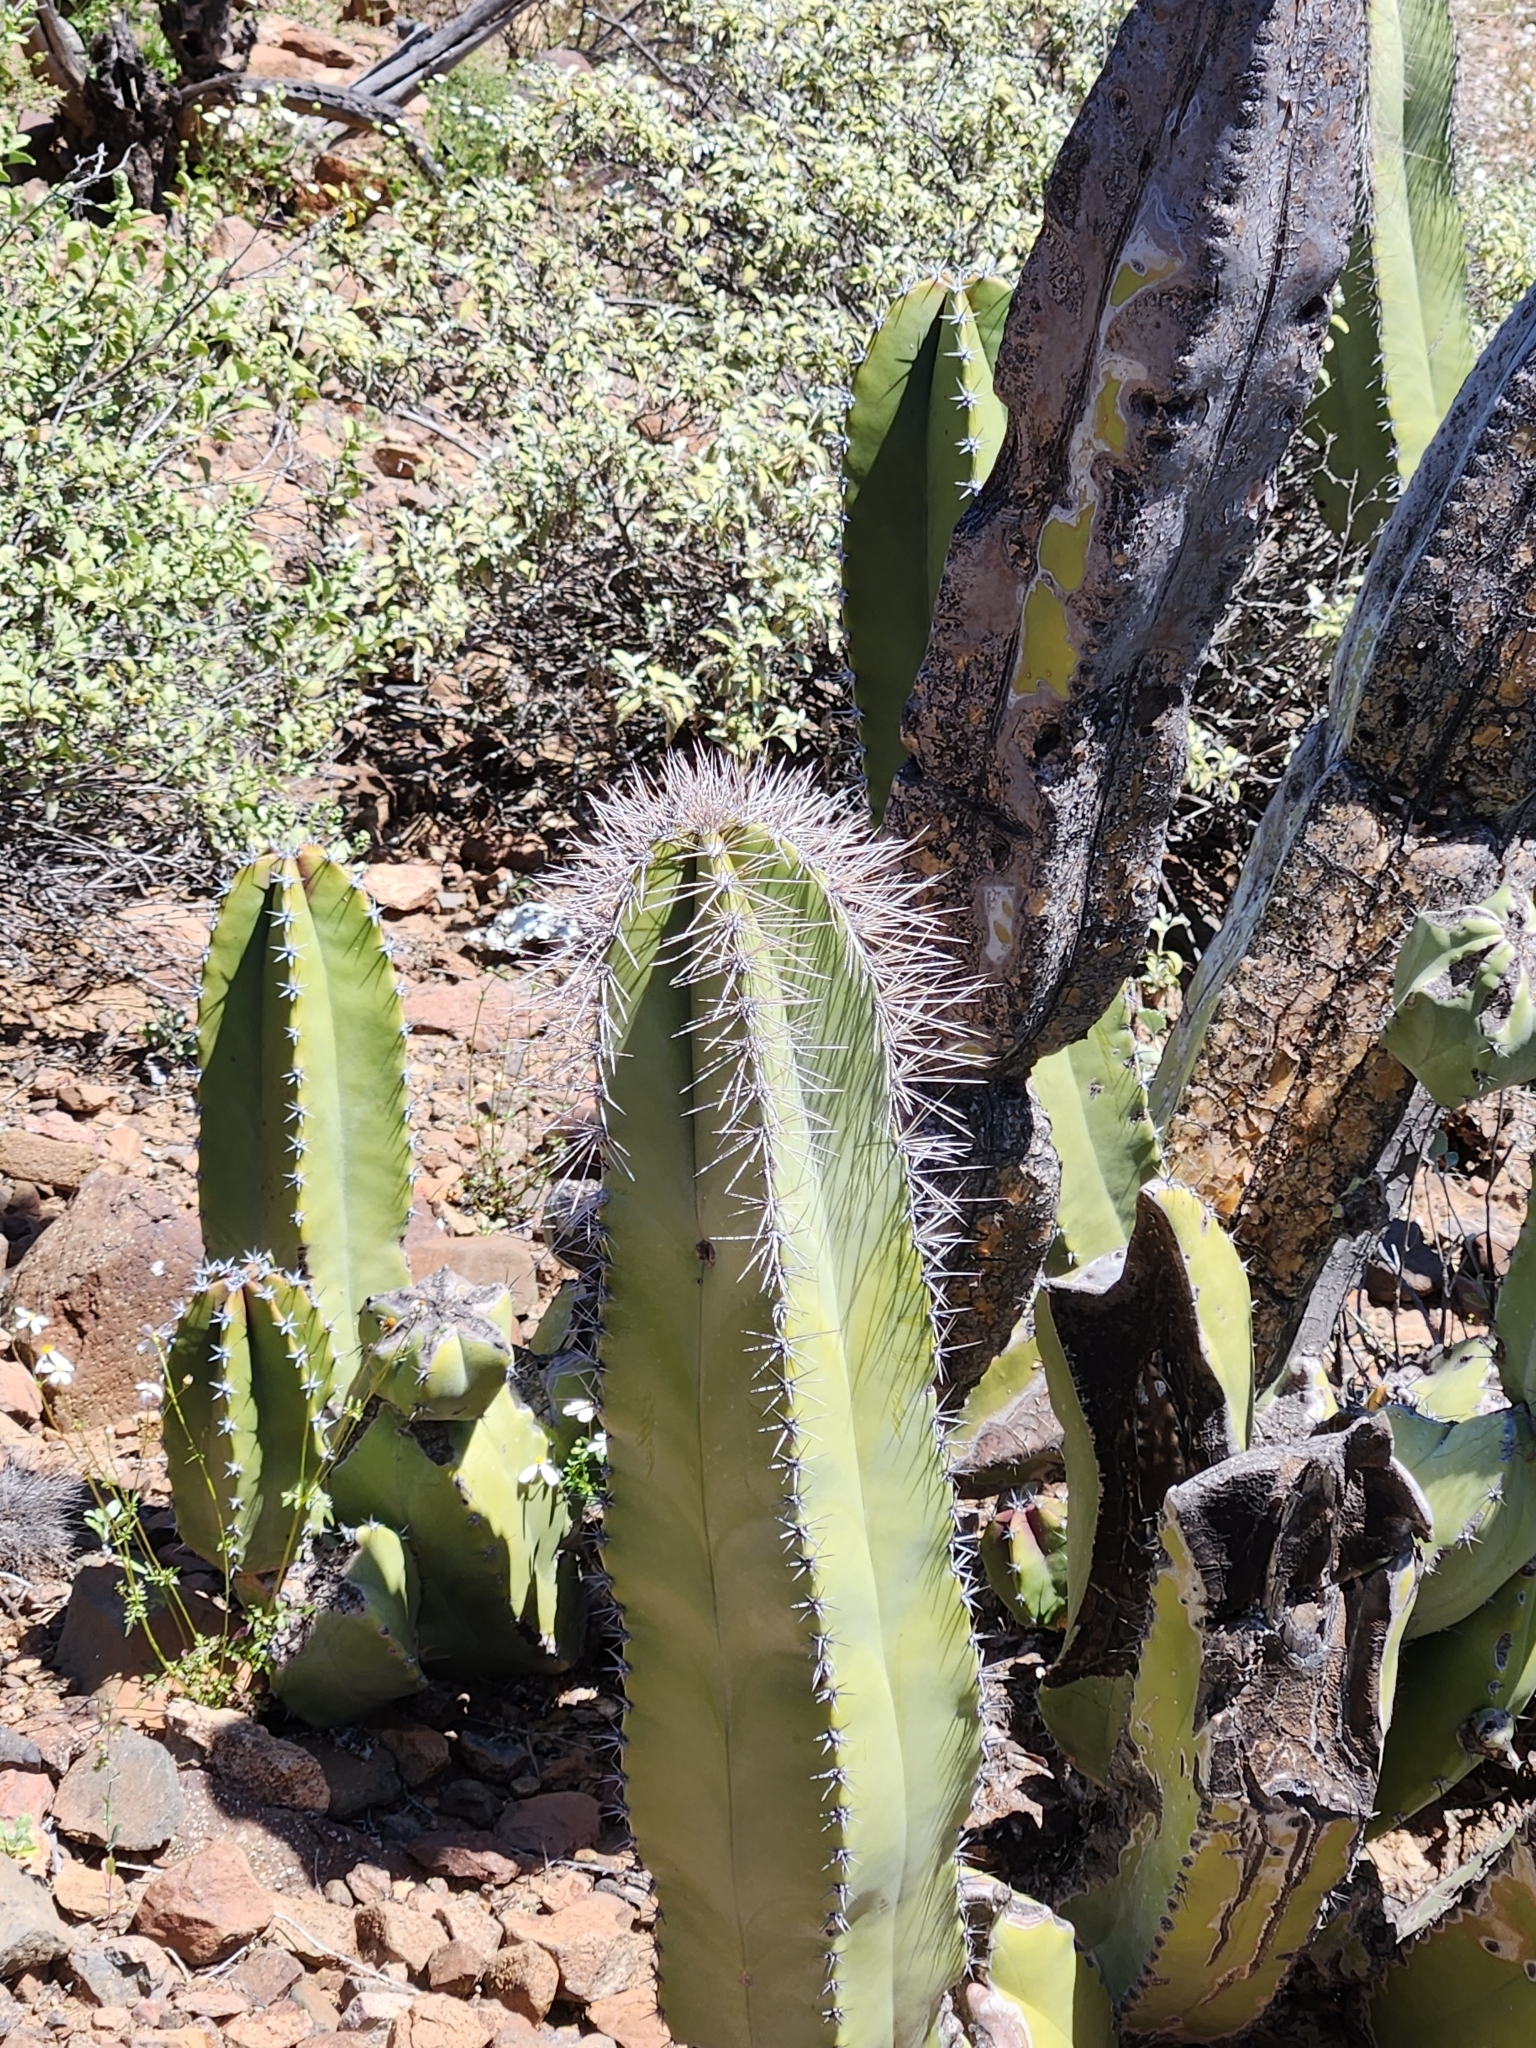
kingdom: Plantae
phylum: Tracheophyta
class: Magnoliopsida
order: Caryophyllales
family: Cactaceae
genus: Pachycereus
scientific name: Pachycereus schottii
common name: Senita cactus
